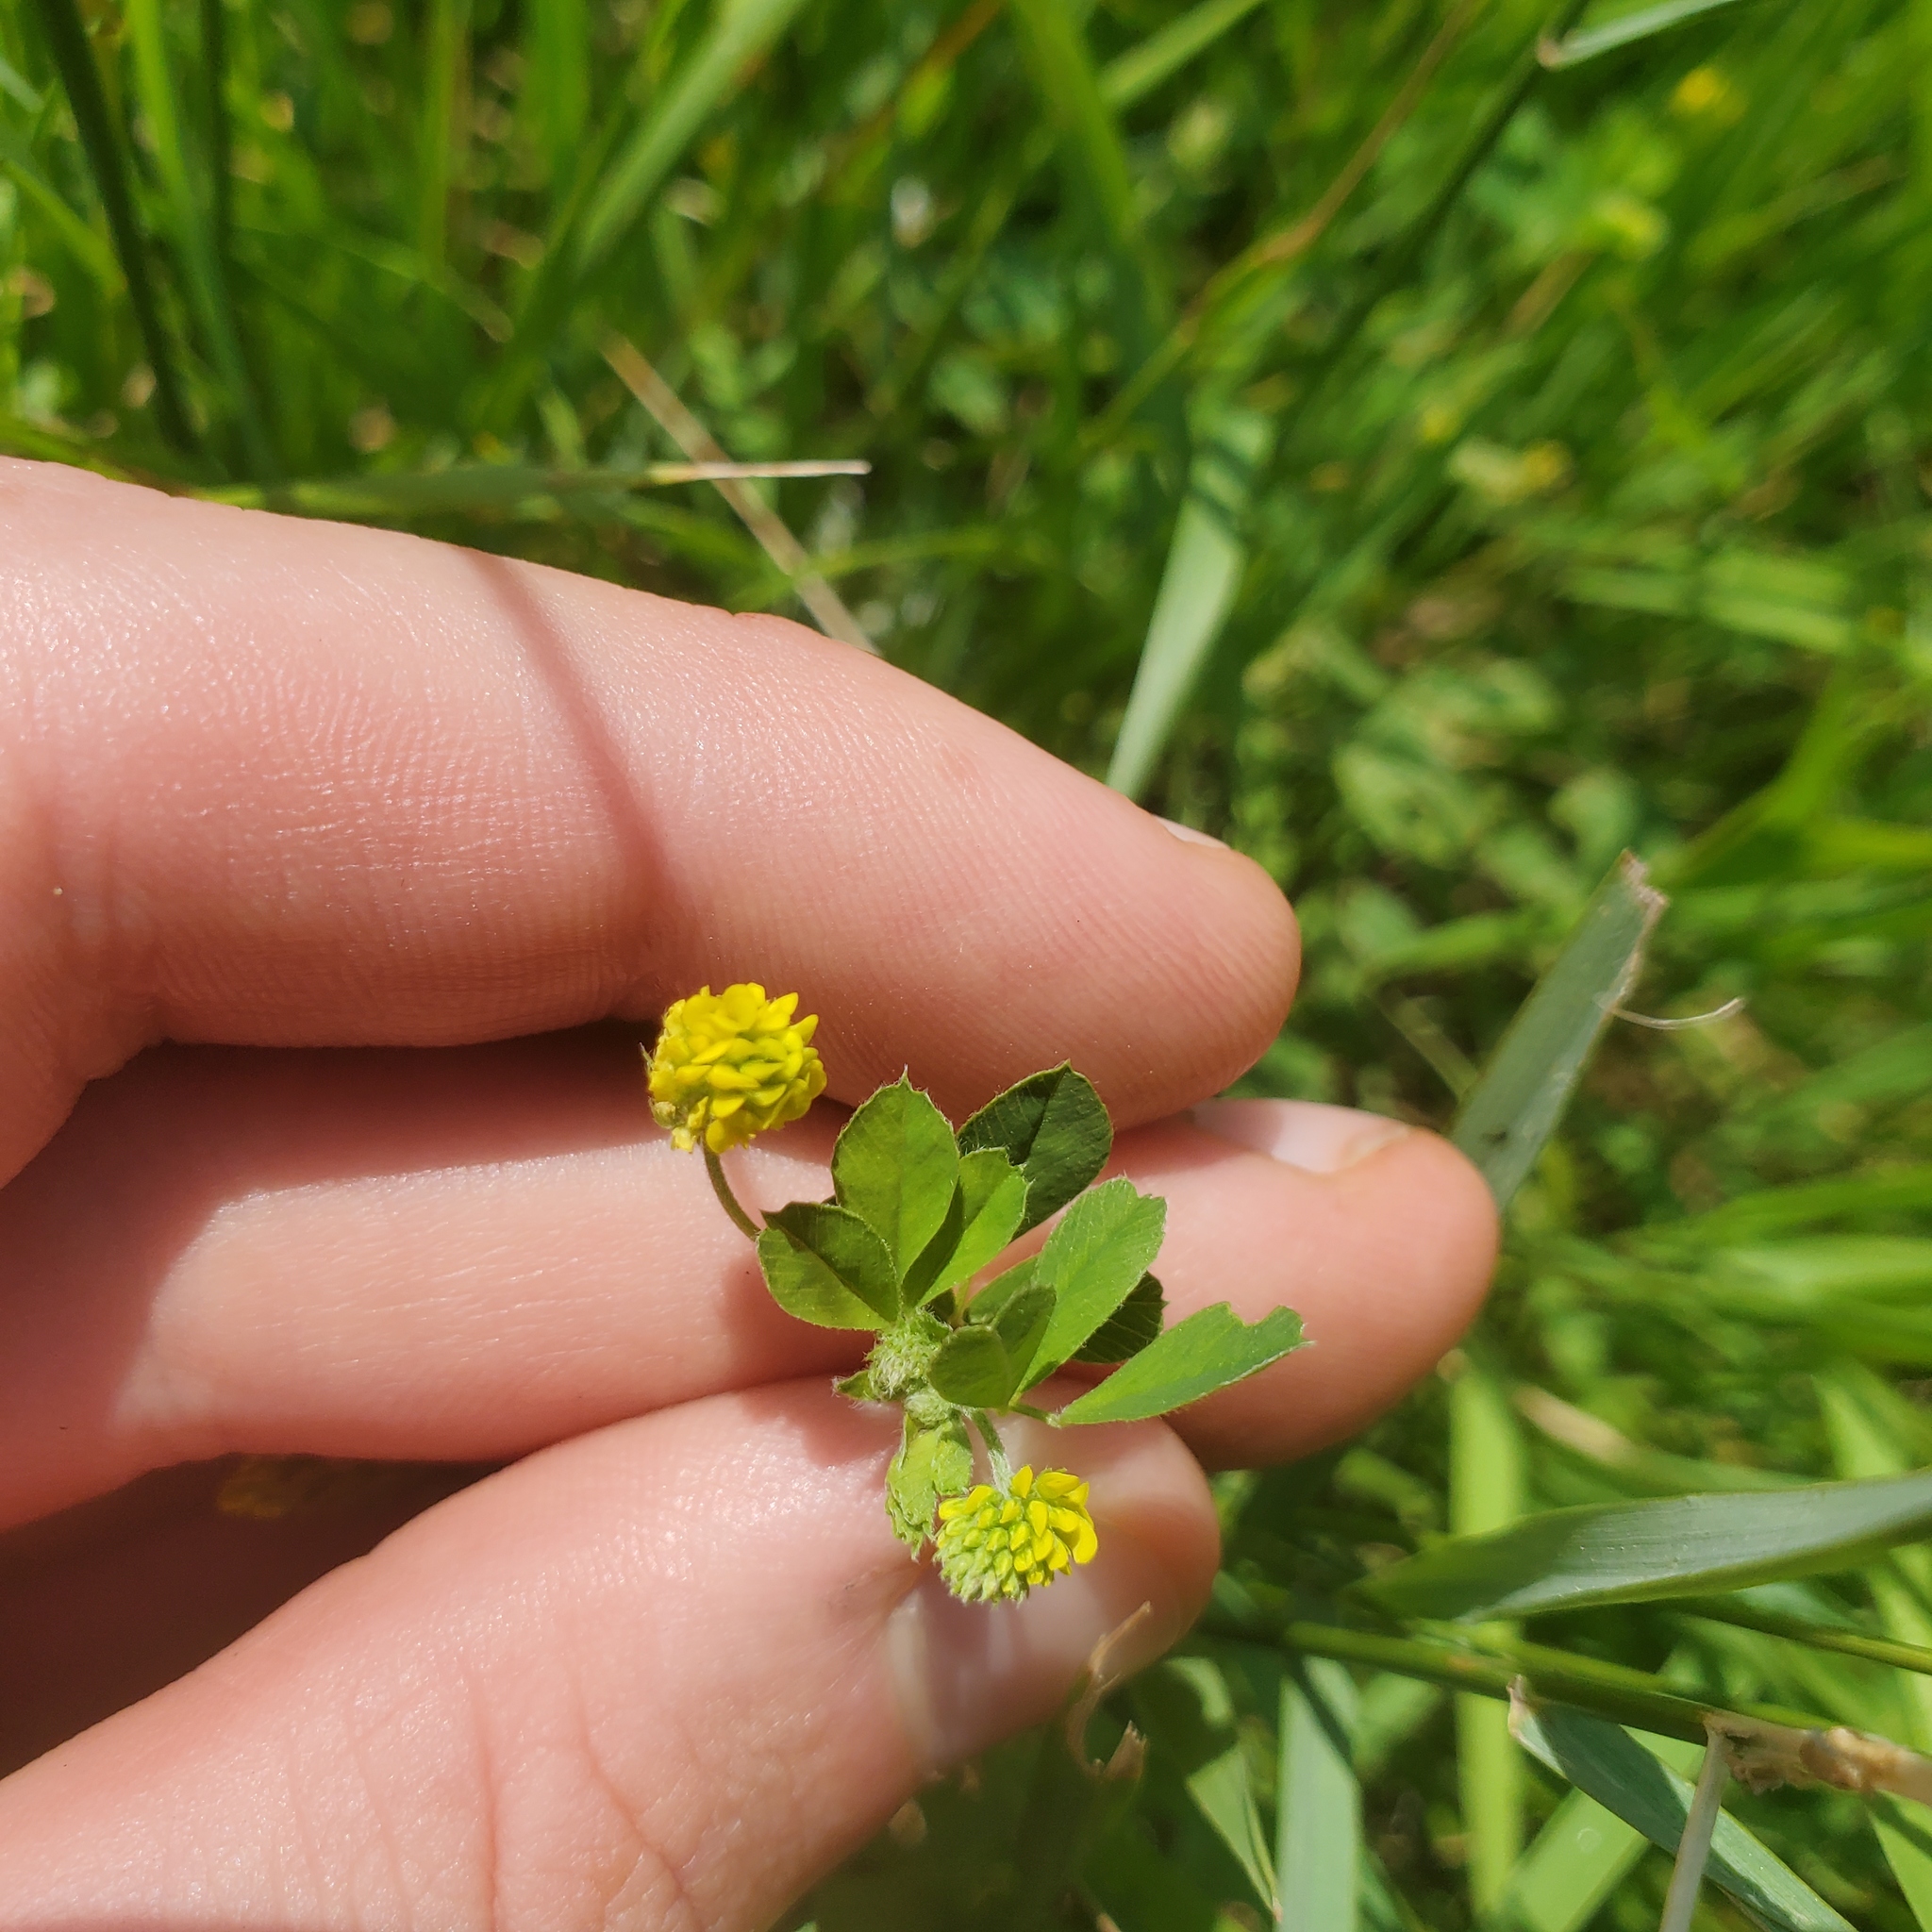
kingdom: Plantae
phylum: Tracheophyta
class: Magnoliopsida
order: Fabales
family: Fabaceae
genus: Medicago
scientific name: Medicago lupulina
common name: Black medick
